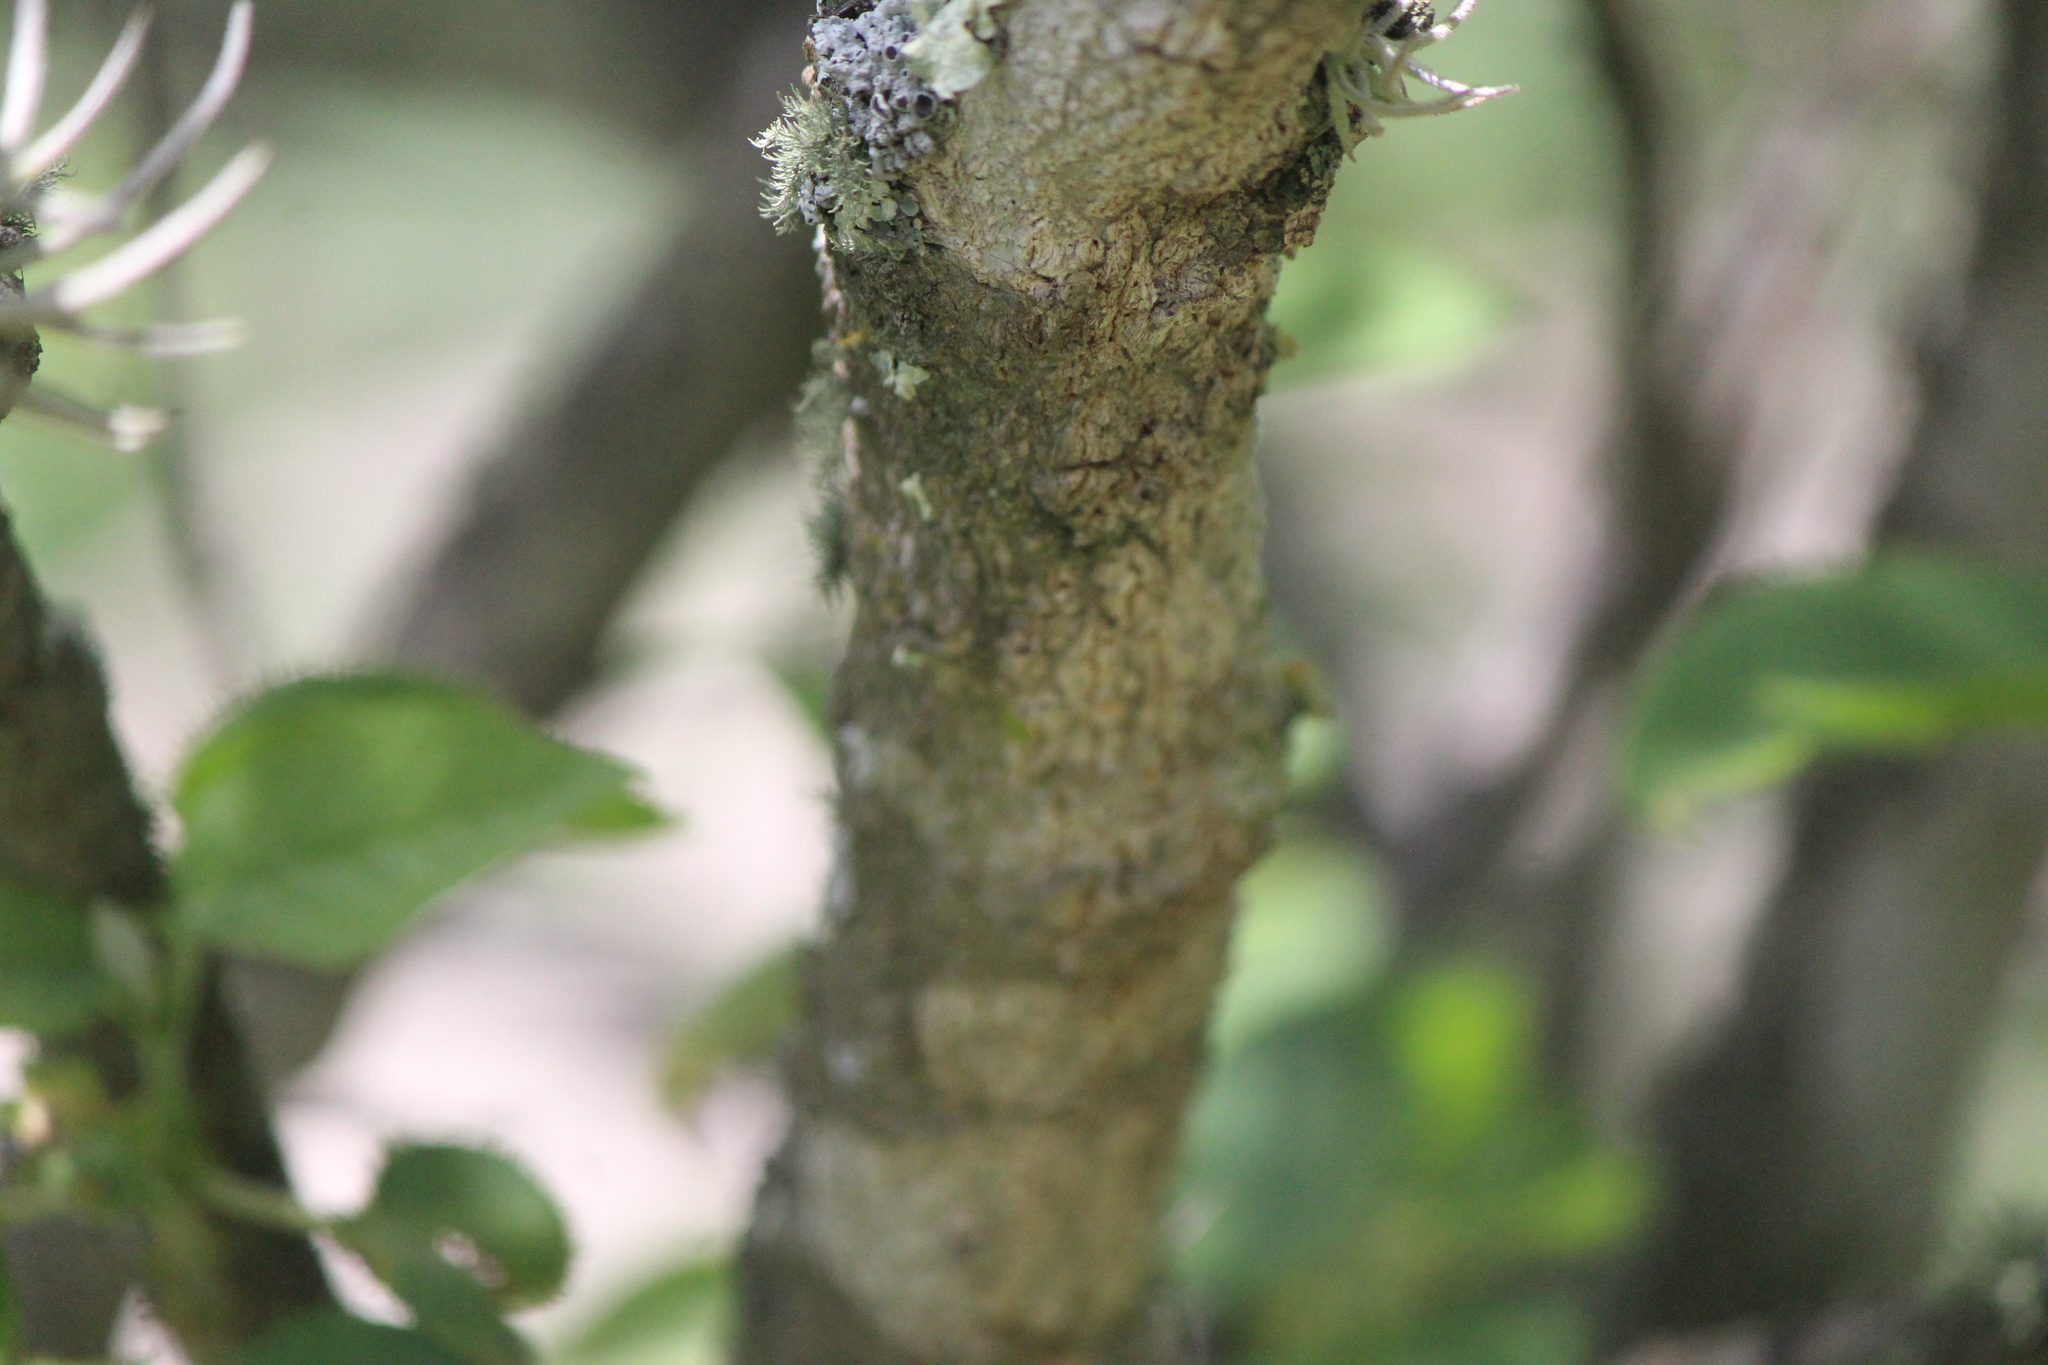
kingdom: Plantae
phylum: Tracheophyta
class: Magnoliopsida
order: Rosales
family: Rhamnaceae
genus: Karwinskia
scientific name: Karwinskia humboldtiana
